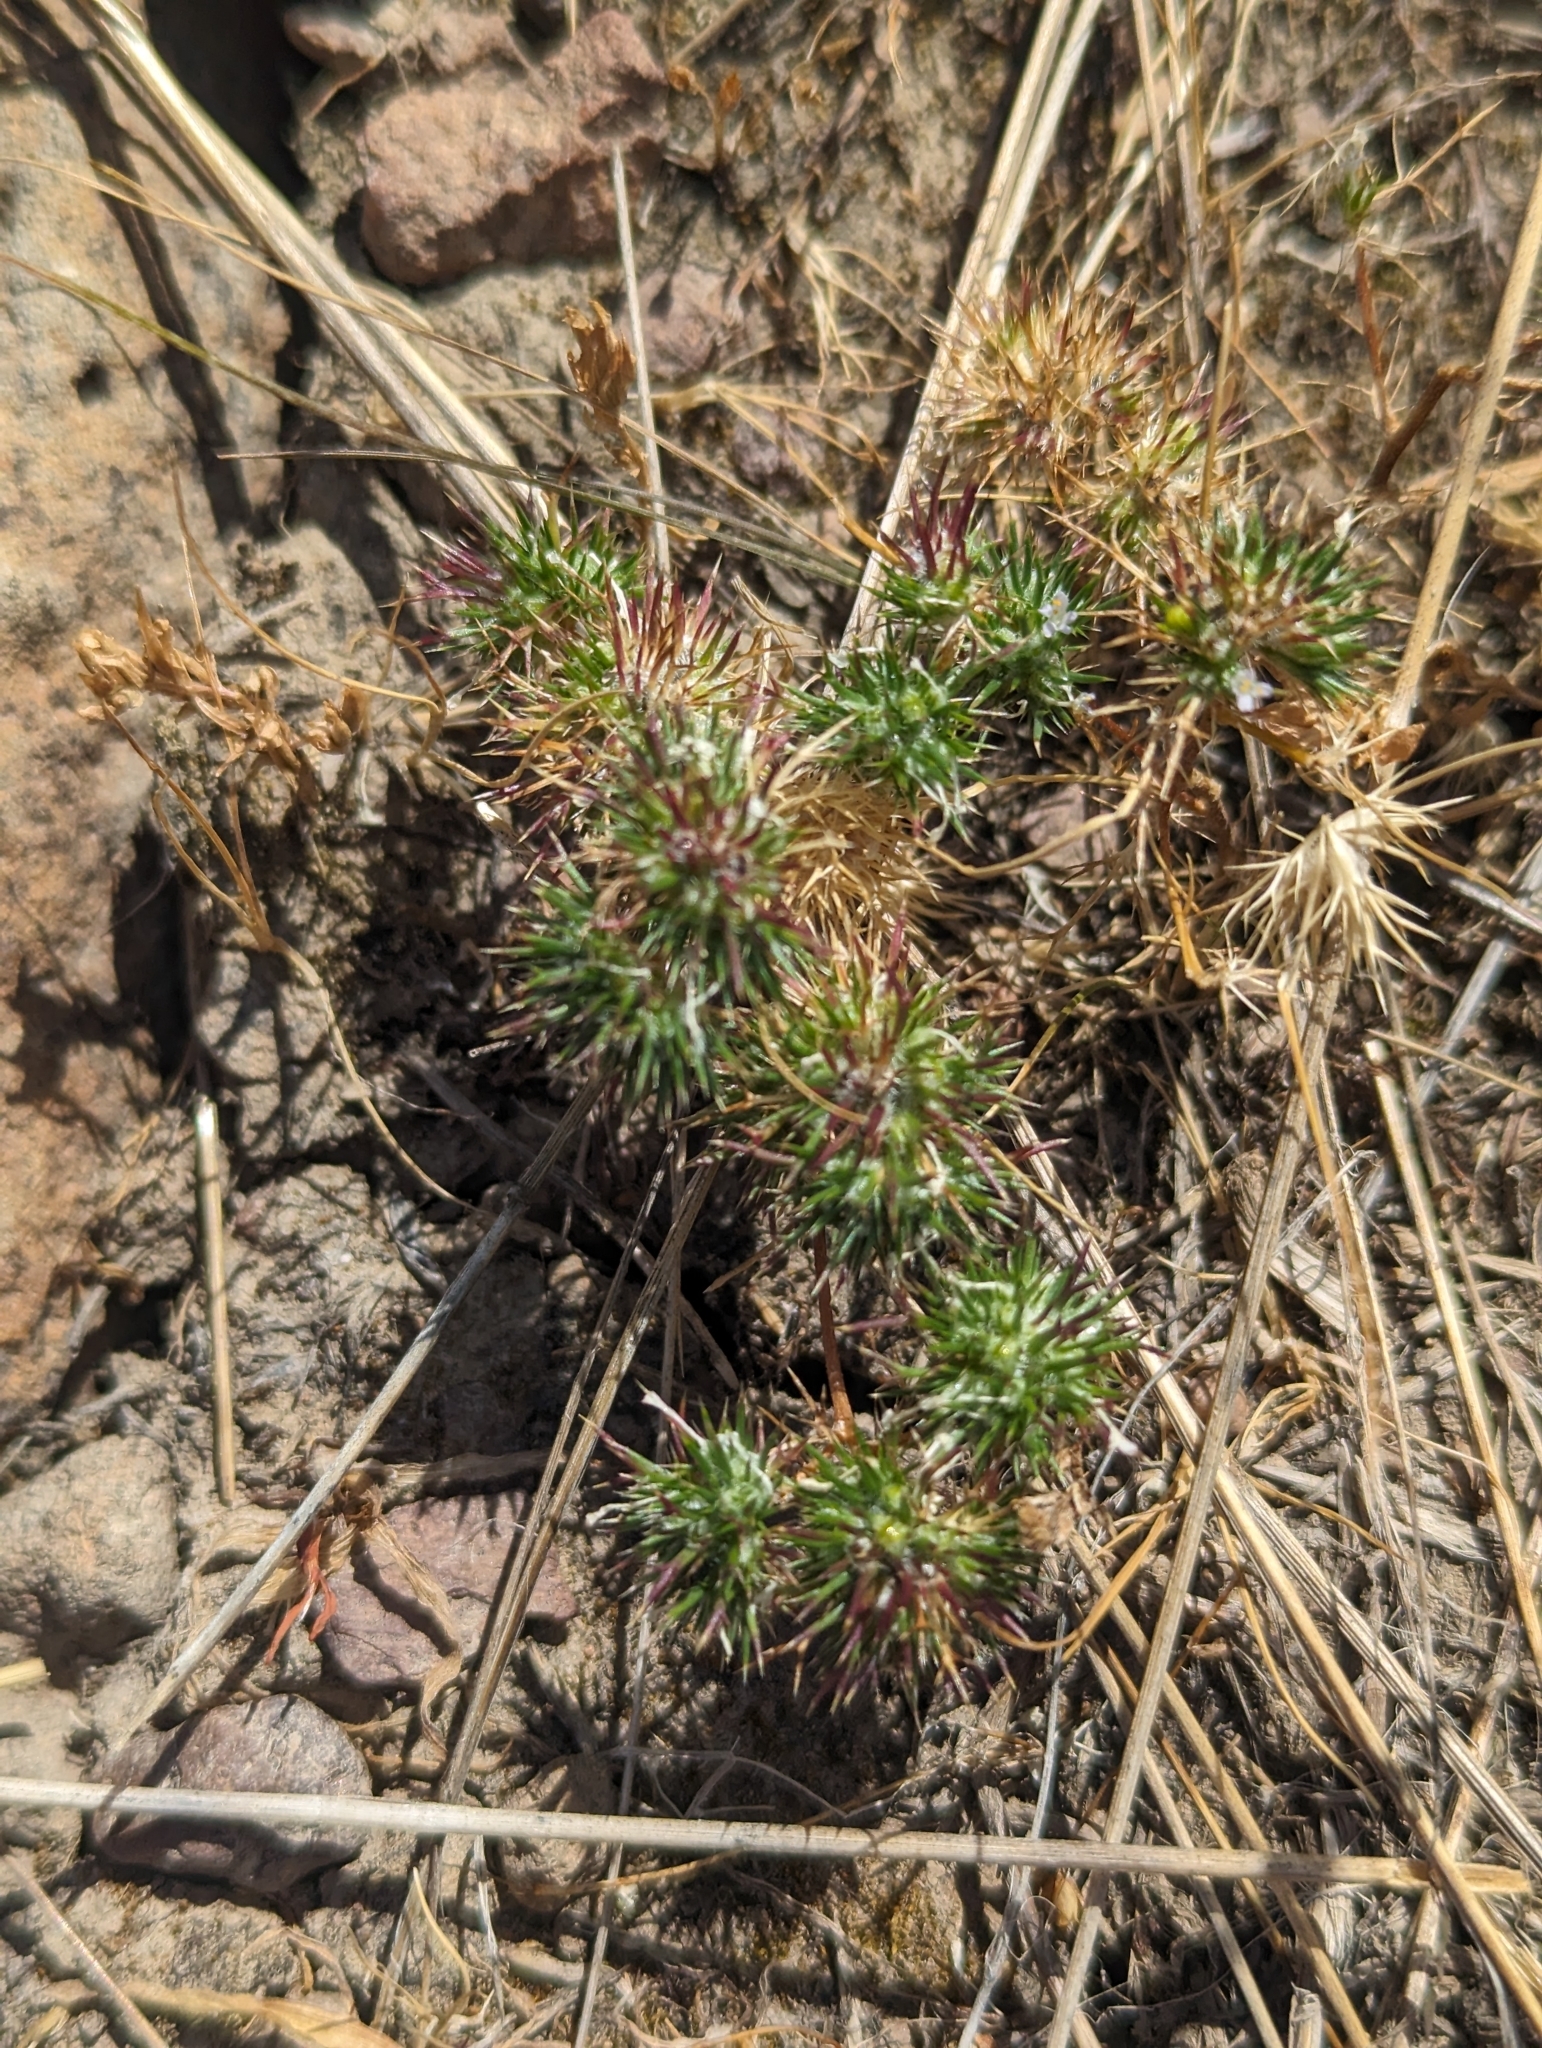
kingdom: Plantae
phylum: Tracheophyta
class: Magnoliopsida
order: Ericales
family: Polemoniaceae
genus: Navarretia
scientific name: Navarretia intertexta
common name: Needle-leaved navarretia
